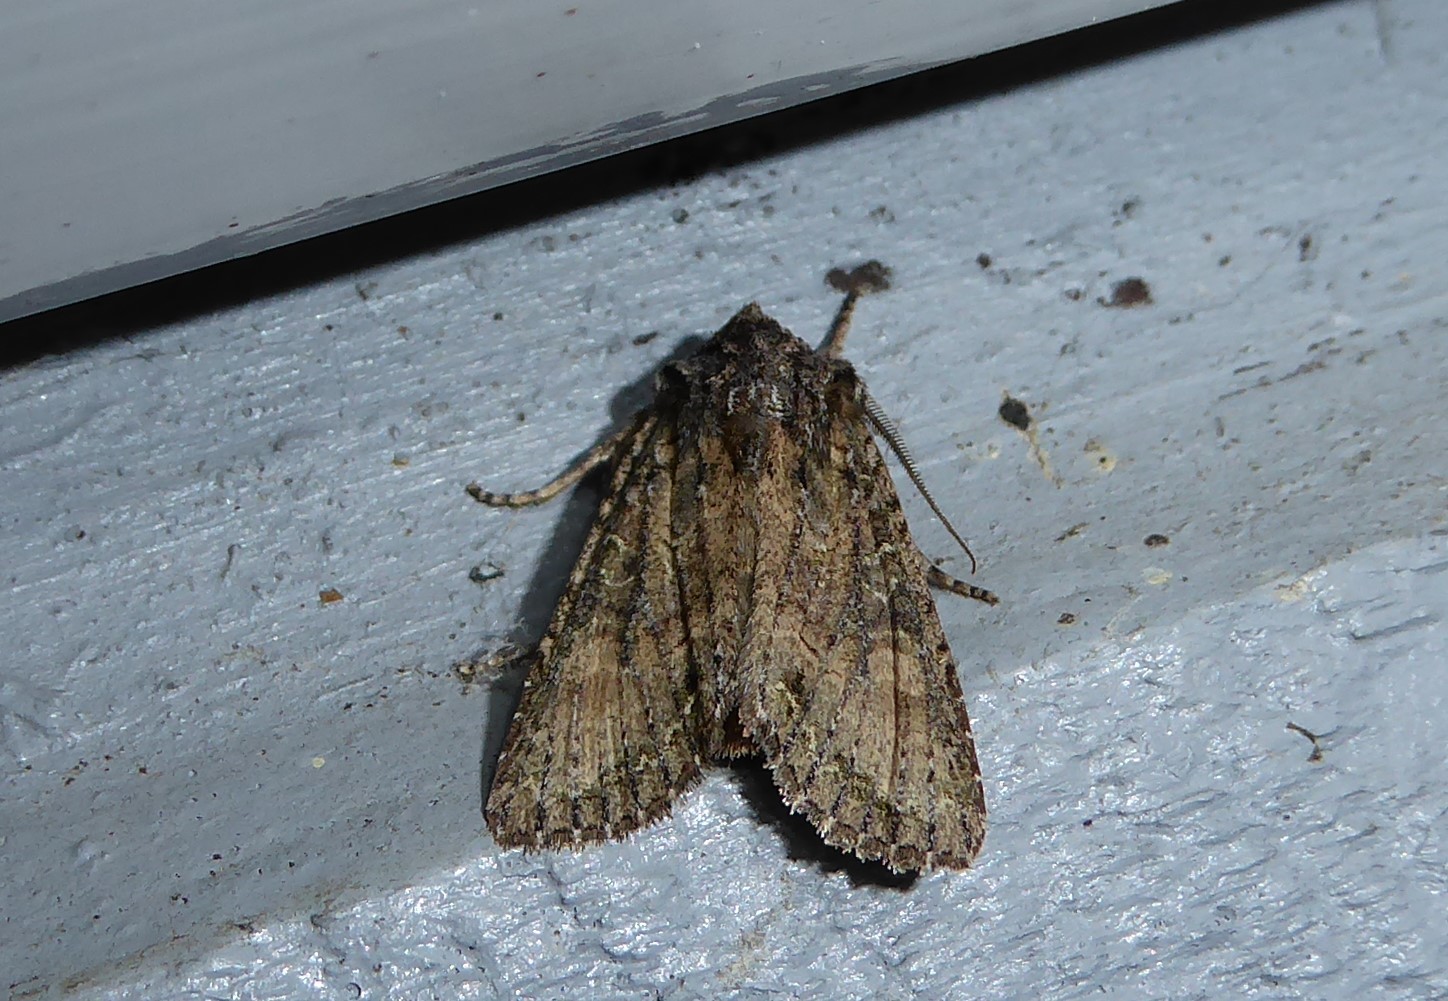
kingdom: Animalia
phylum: Arthropoda
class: Insecta
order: Lepidoptera
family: Noctuidae
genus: Ichneutica
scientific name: Ichneutica mutans
